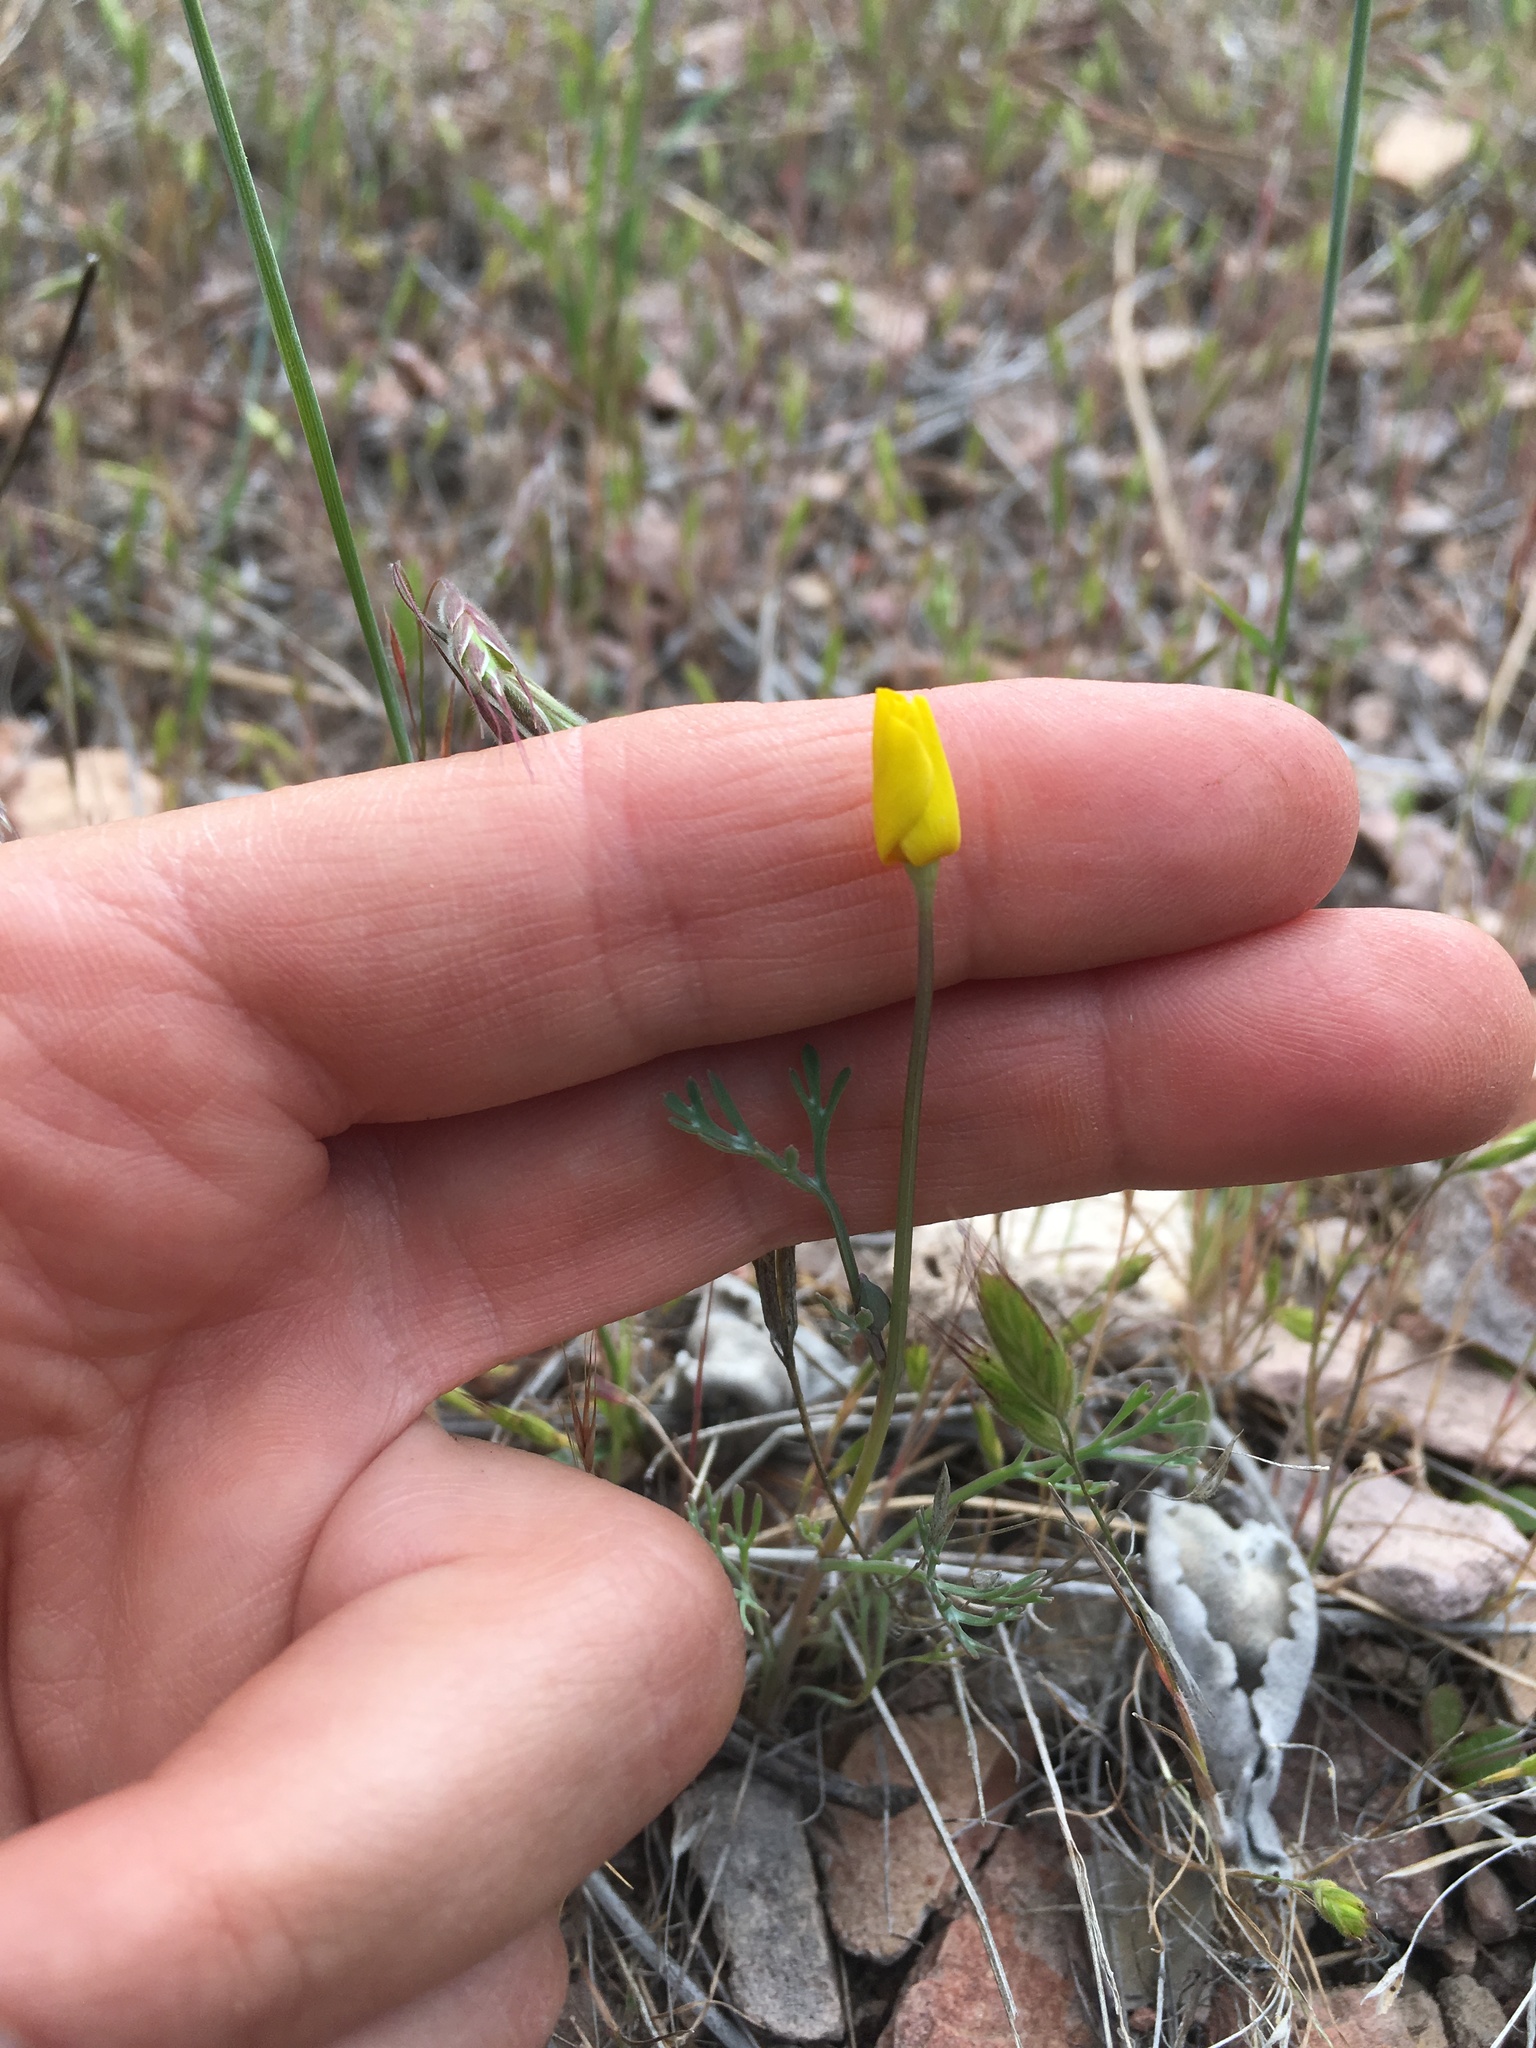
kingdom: Plantae
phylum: Tracheophyta
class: Magnoliopsida
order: Ranunculales
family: Papaveraceae
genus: Eschscholzia
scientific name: Eschscholzia caespitosa
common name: Tufted california-poppy
